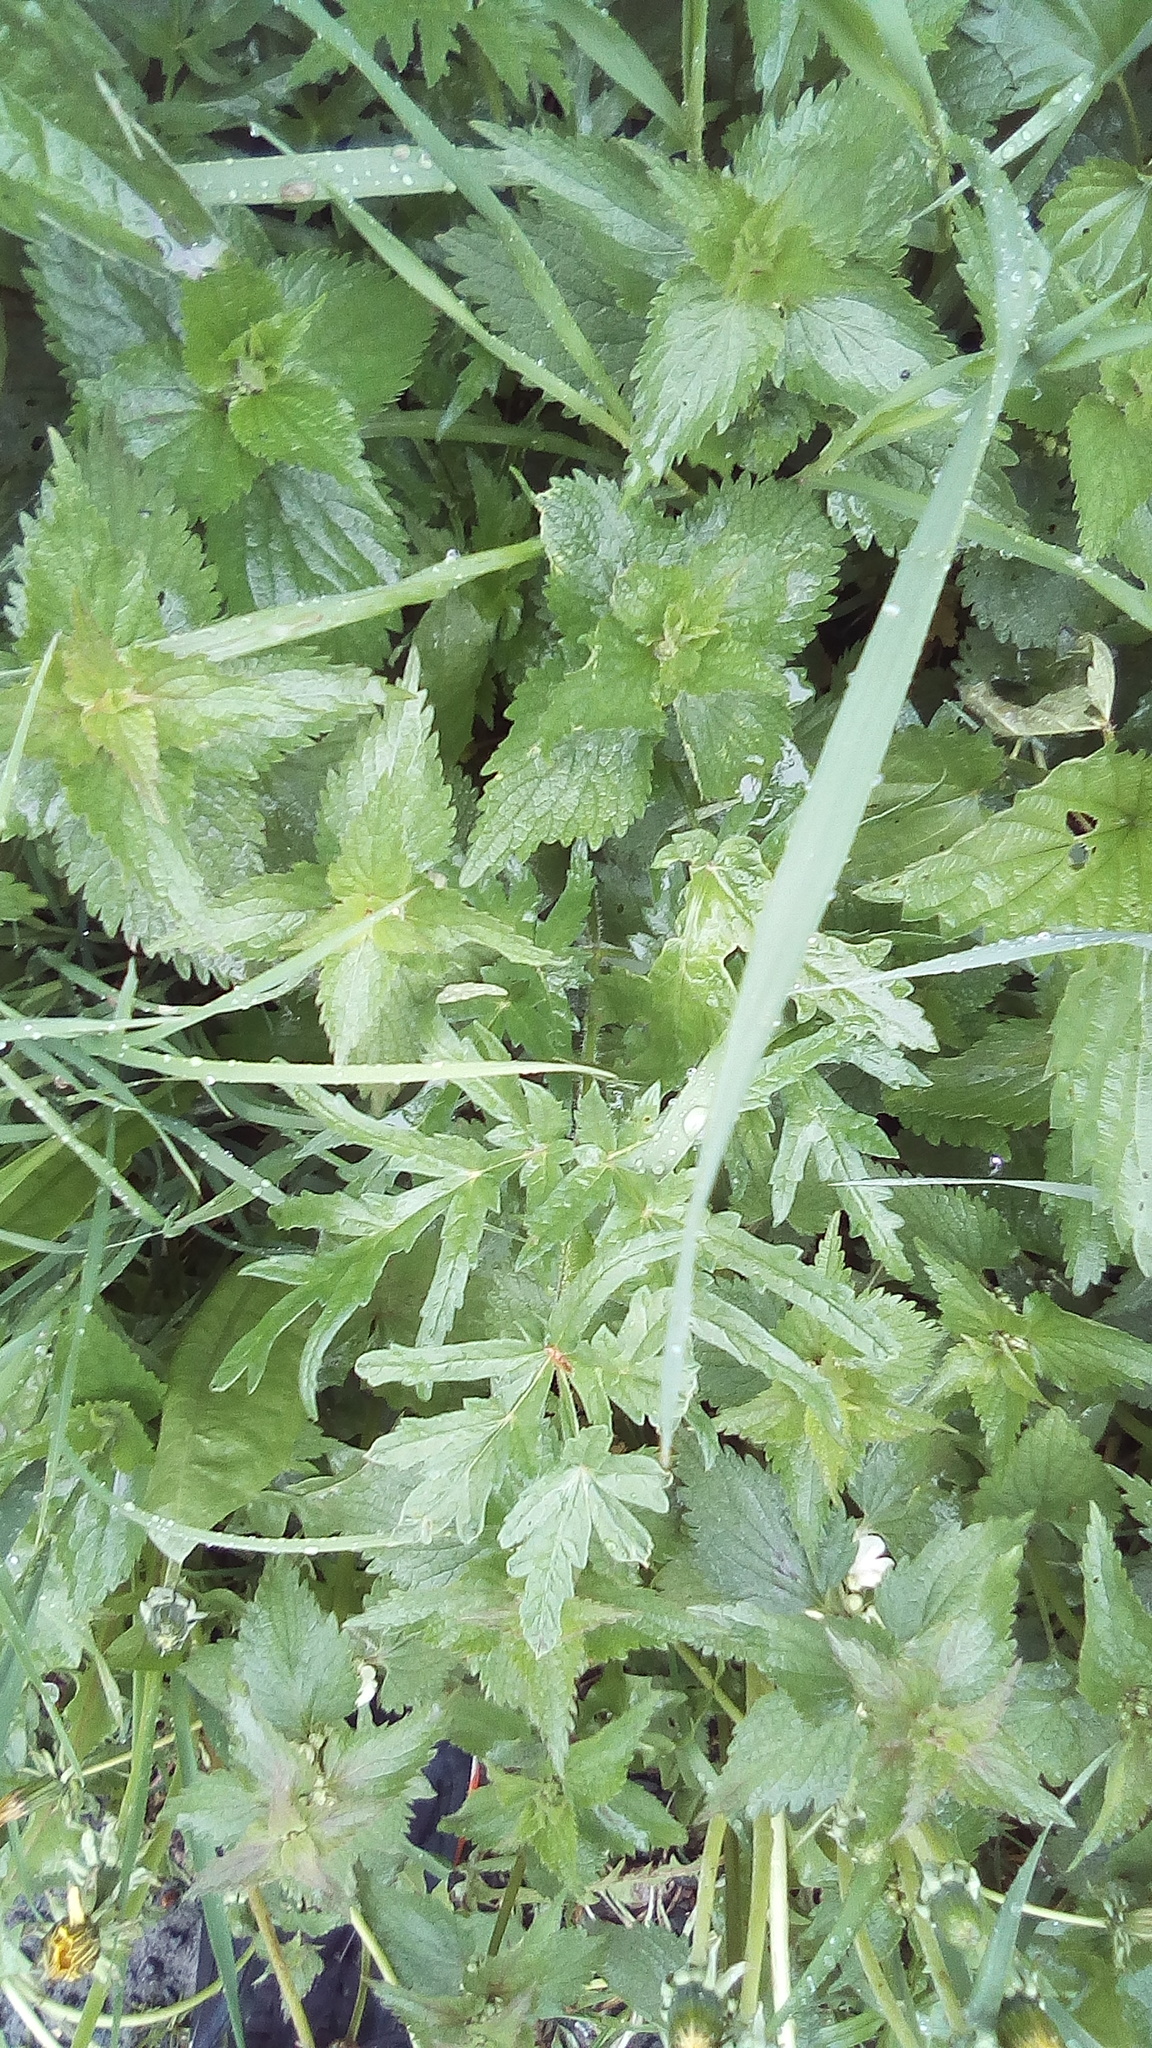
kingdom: Plantae
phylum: Tracheophyta
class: Magnoliopsida
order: Apiales
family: Apiaceae
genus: Heracleum
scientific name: Heracleum sphondylium
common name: Hogweed
